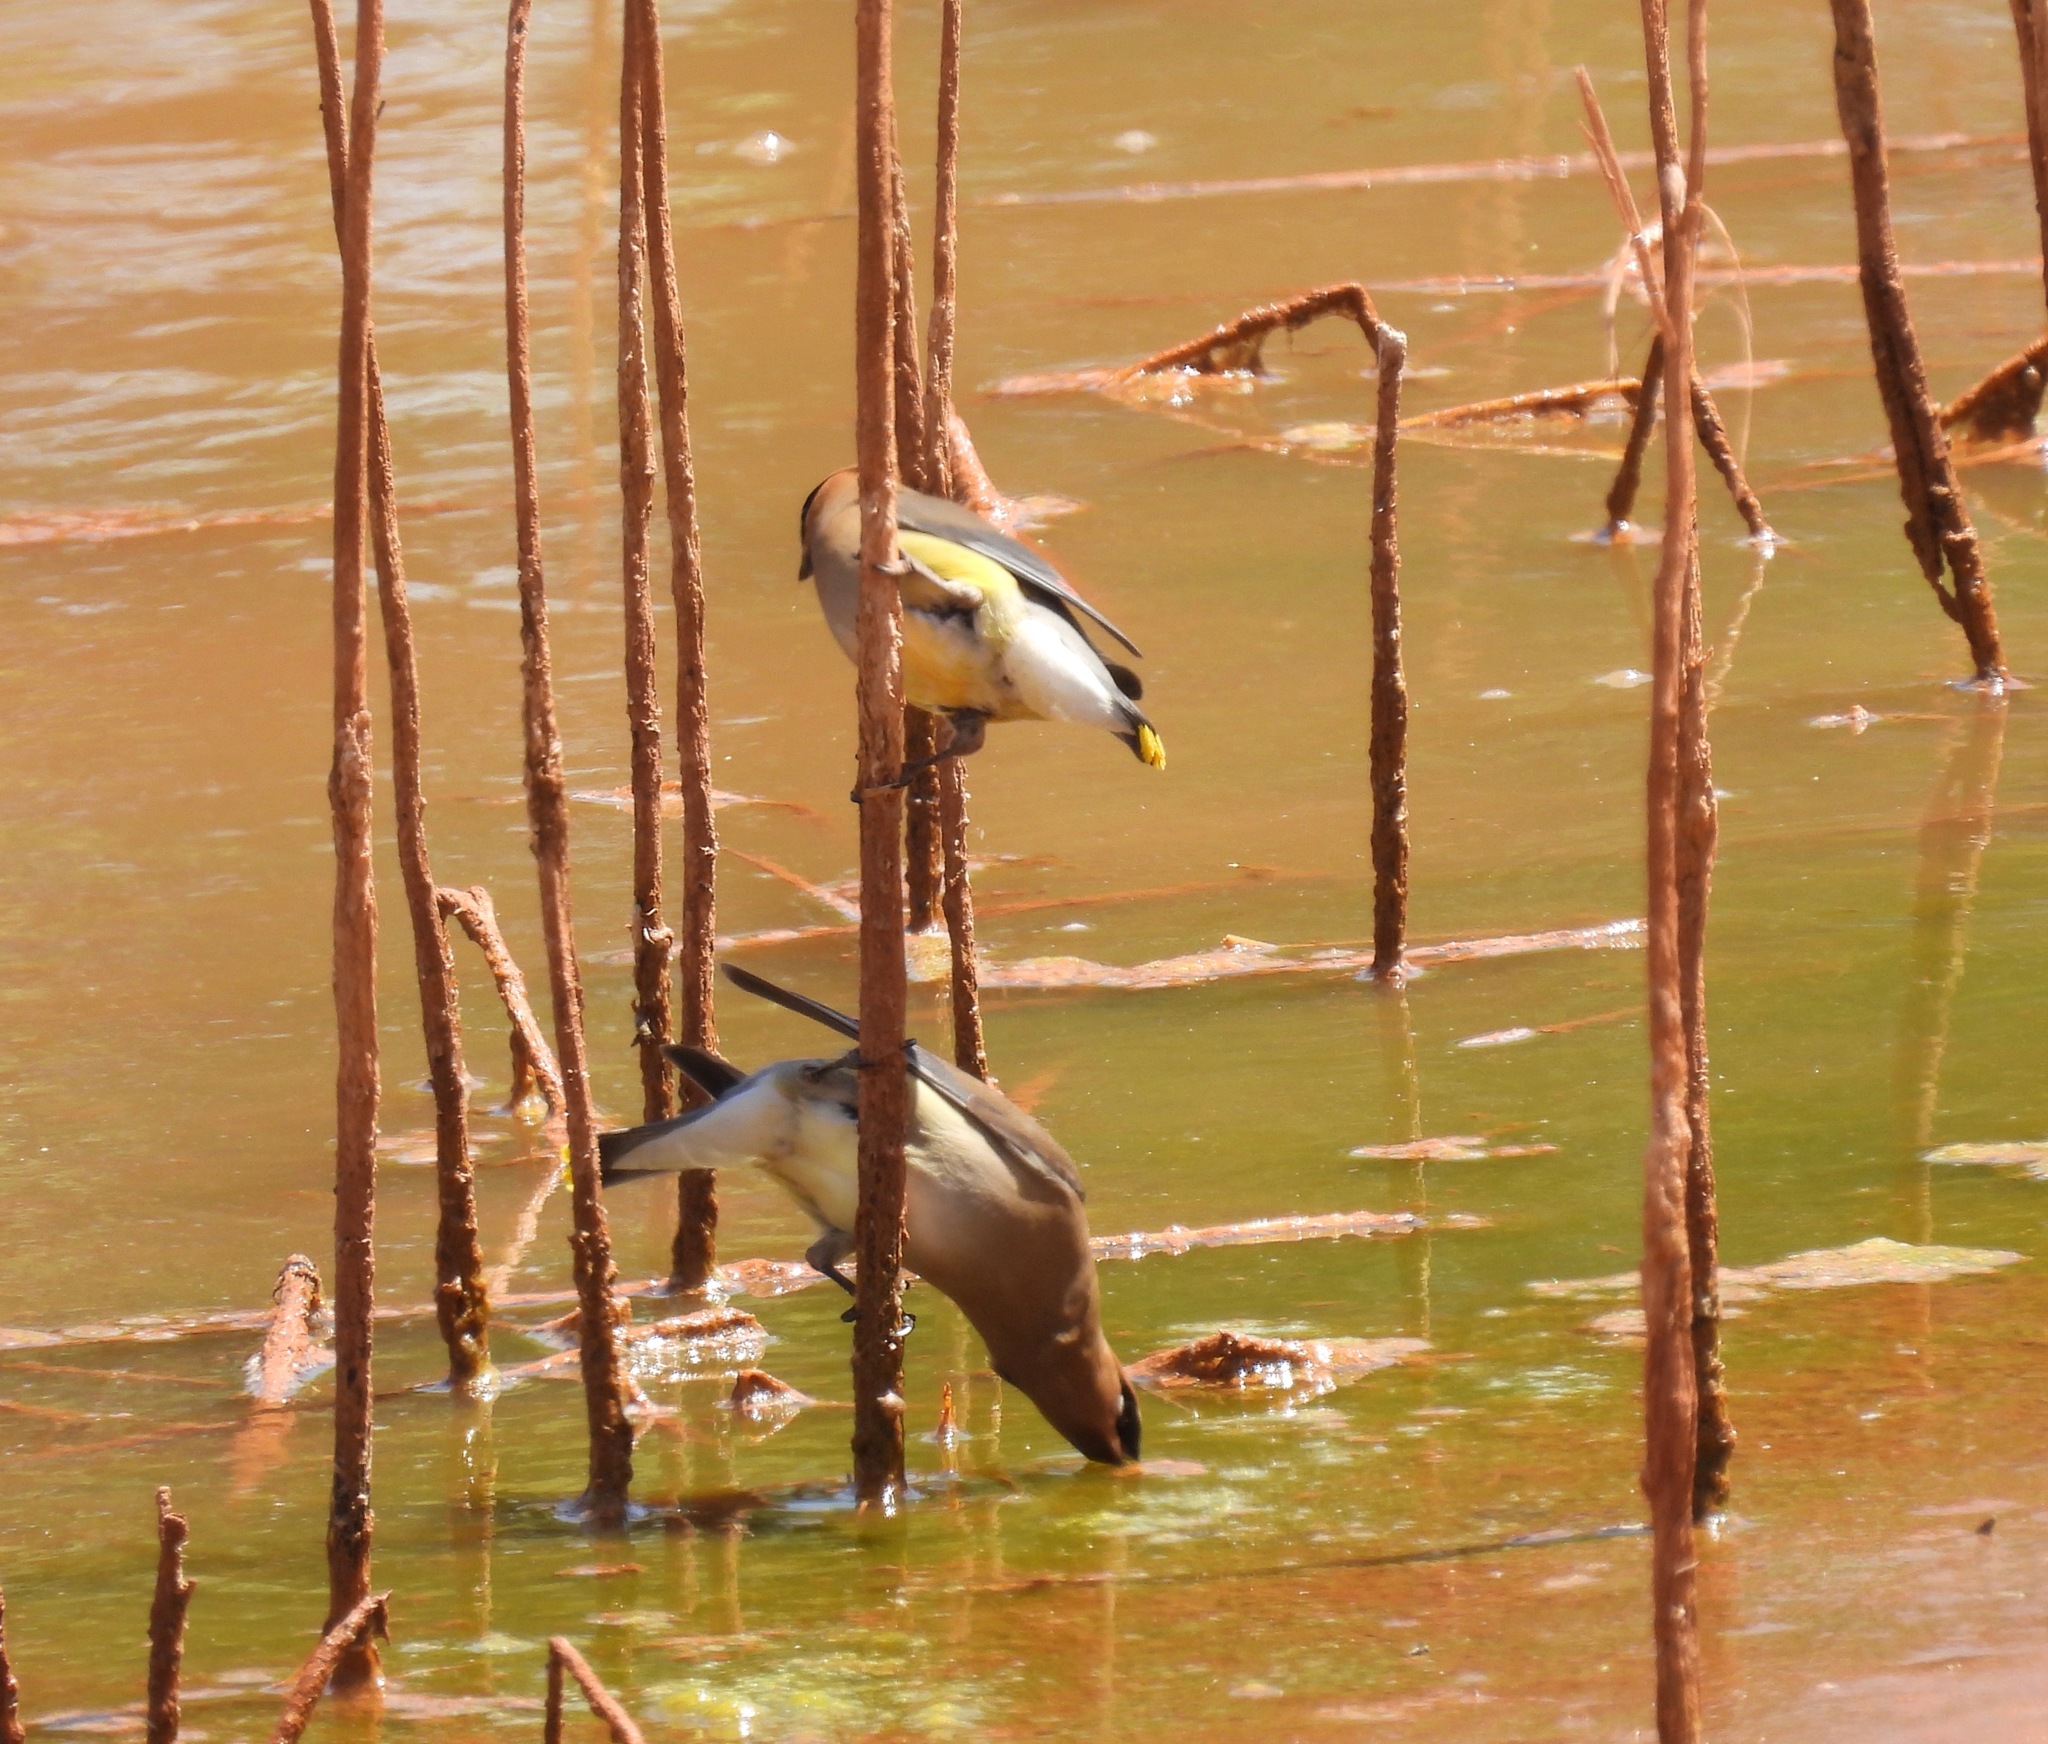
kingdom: Animalia
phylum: Chordata
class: Aves
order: Passeriformes
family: Bombycillidae
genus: Bombycilla
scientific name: Bombycilla cedrorum
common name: Cedar waxwing
